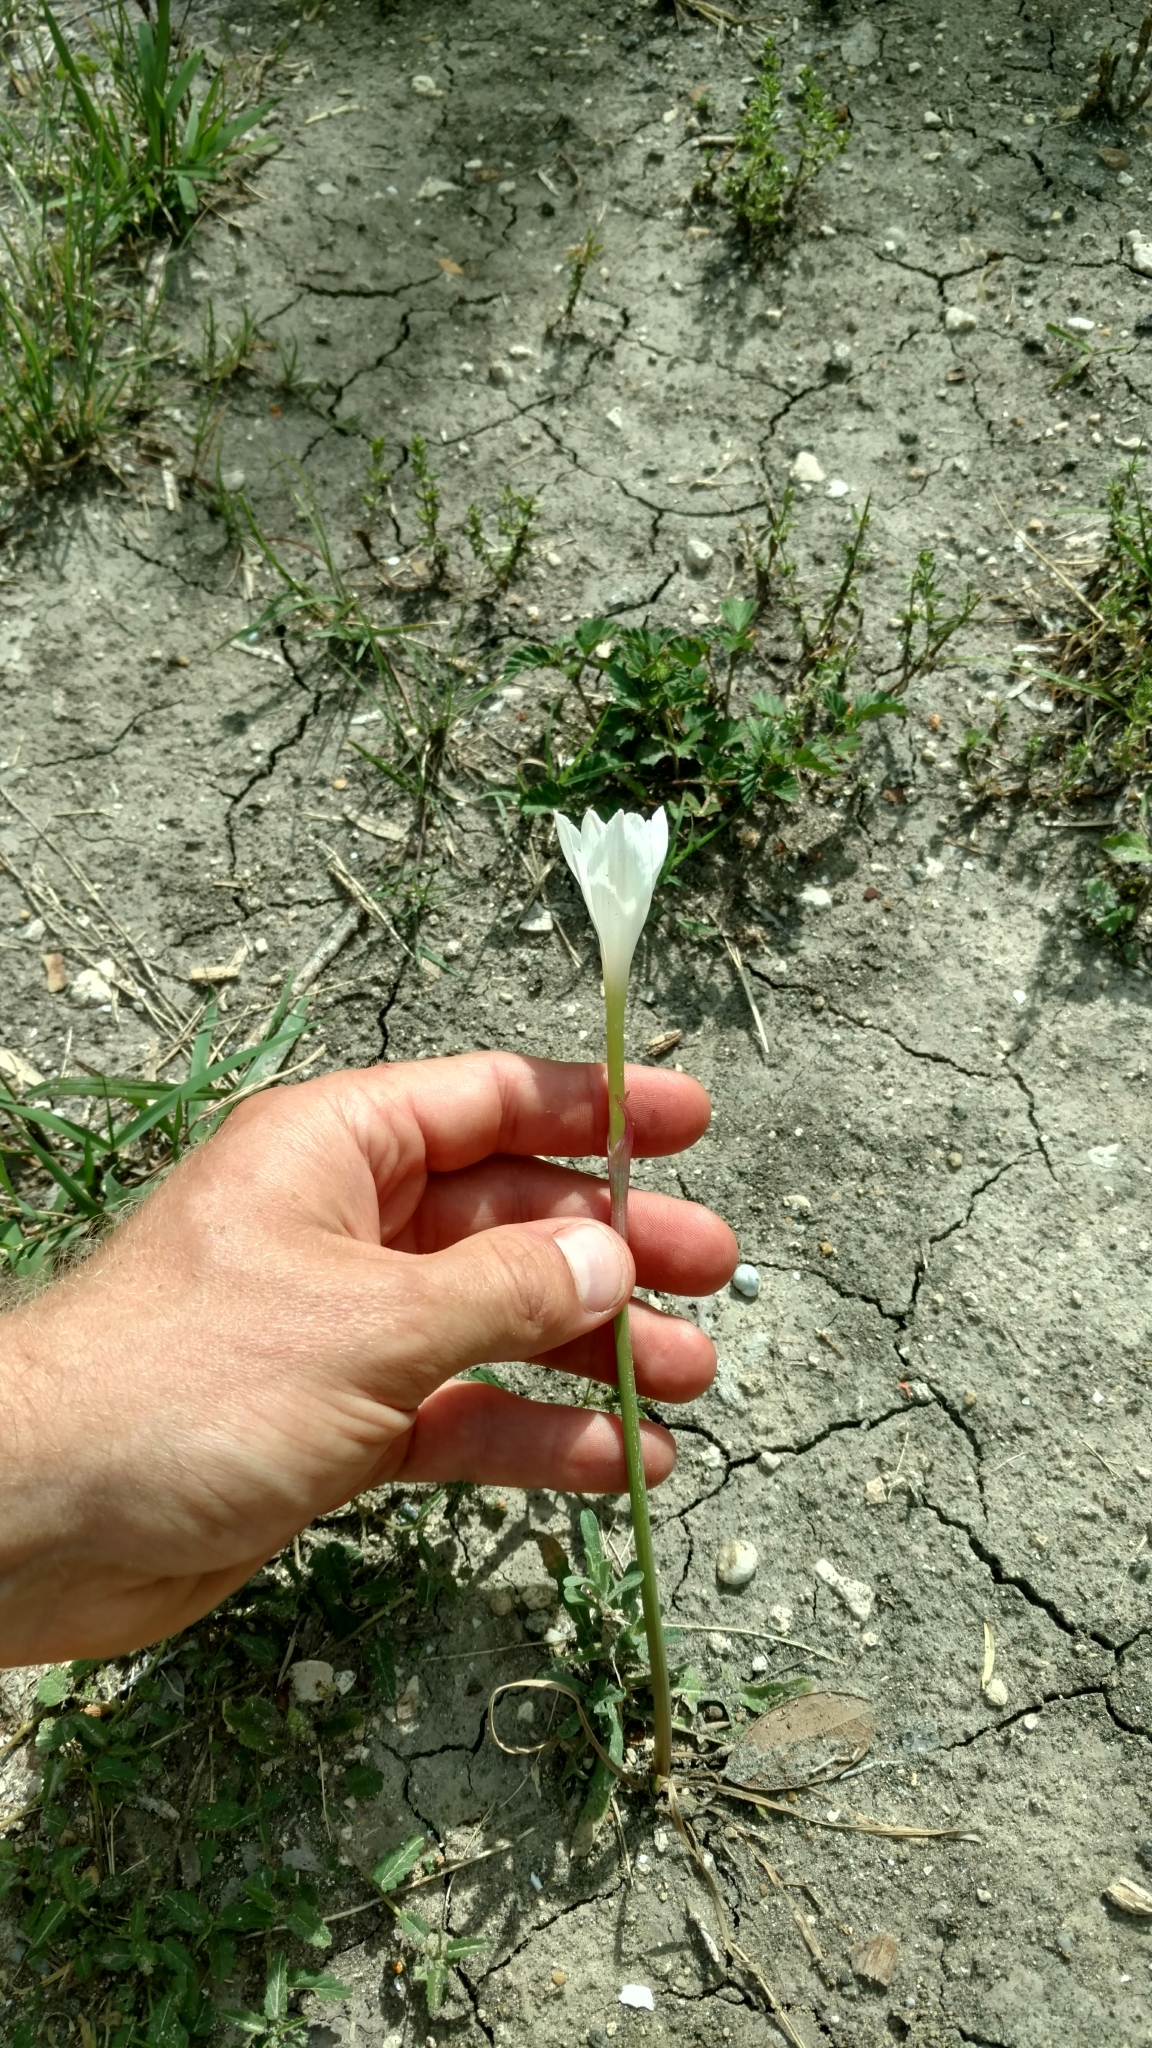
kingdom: Plantae
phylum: Tracheophyta
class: Liliopsida
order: Asparagales
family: Amaryllidaceae
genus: Zephyranthes
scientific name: Zephyranthes drummondii
